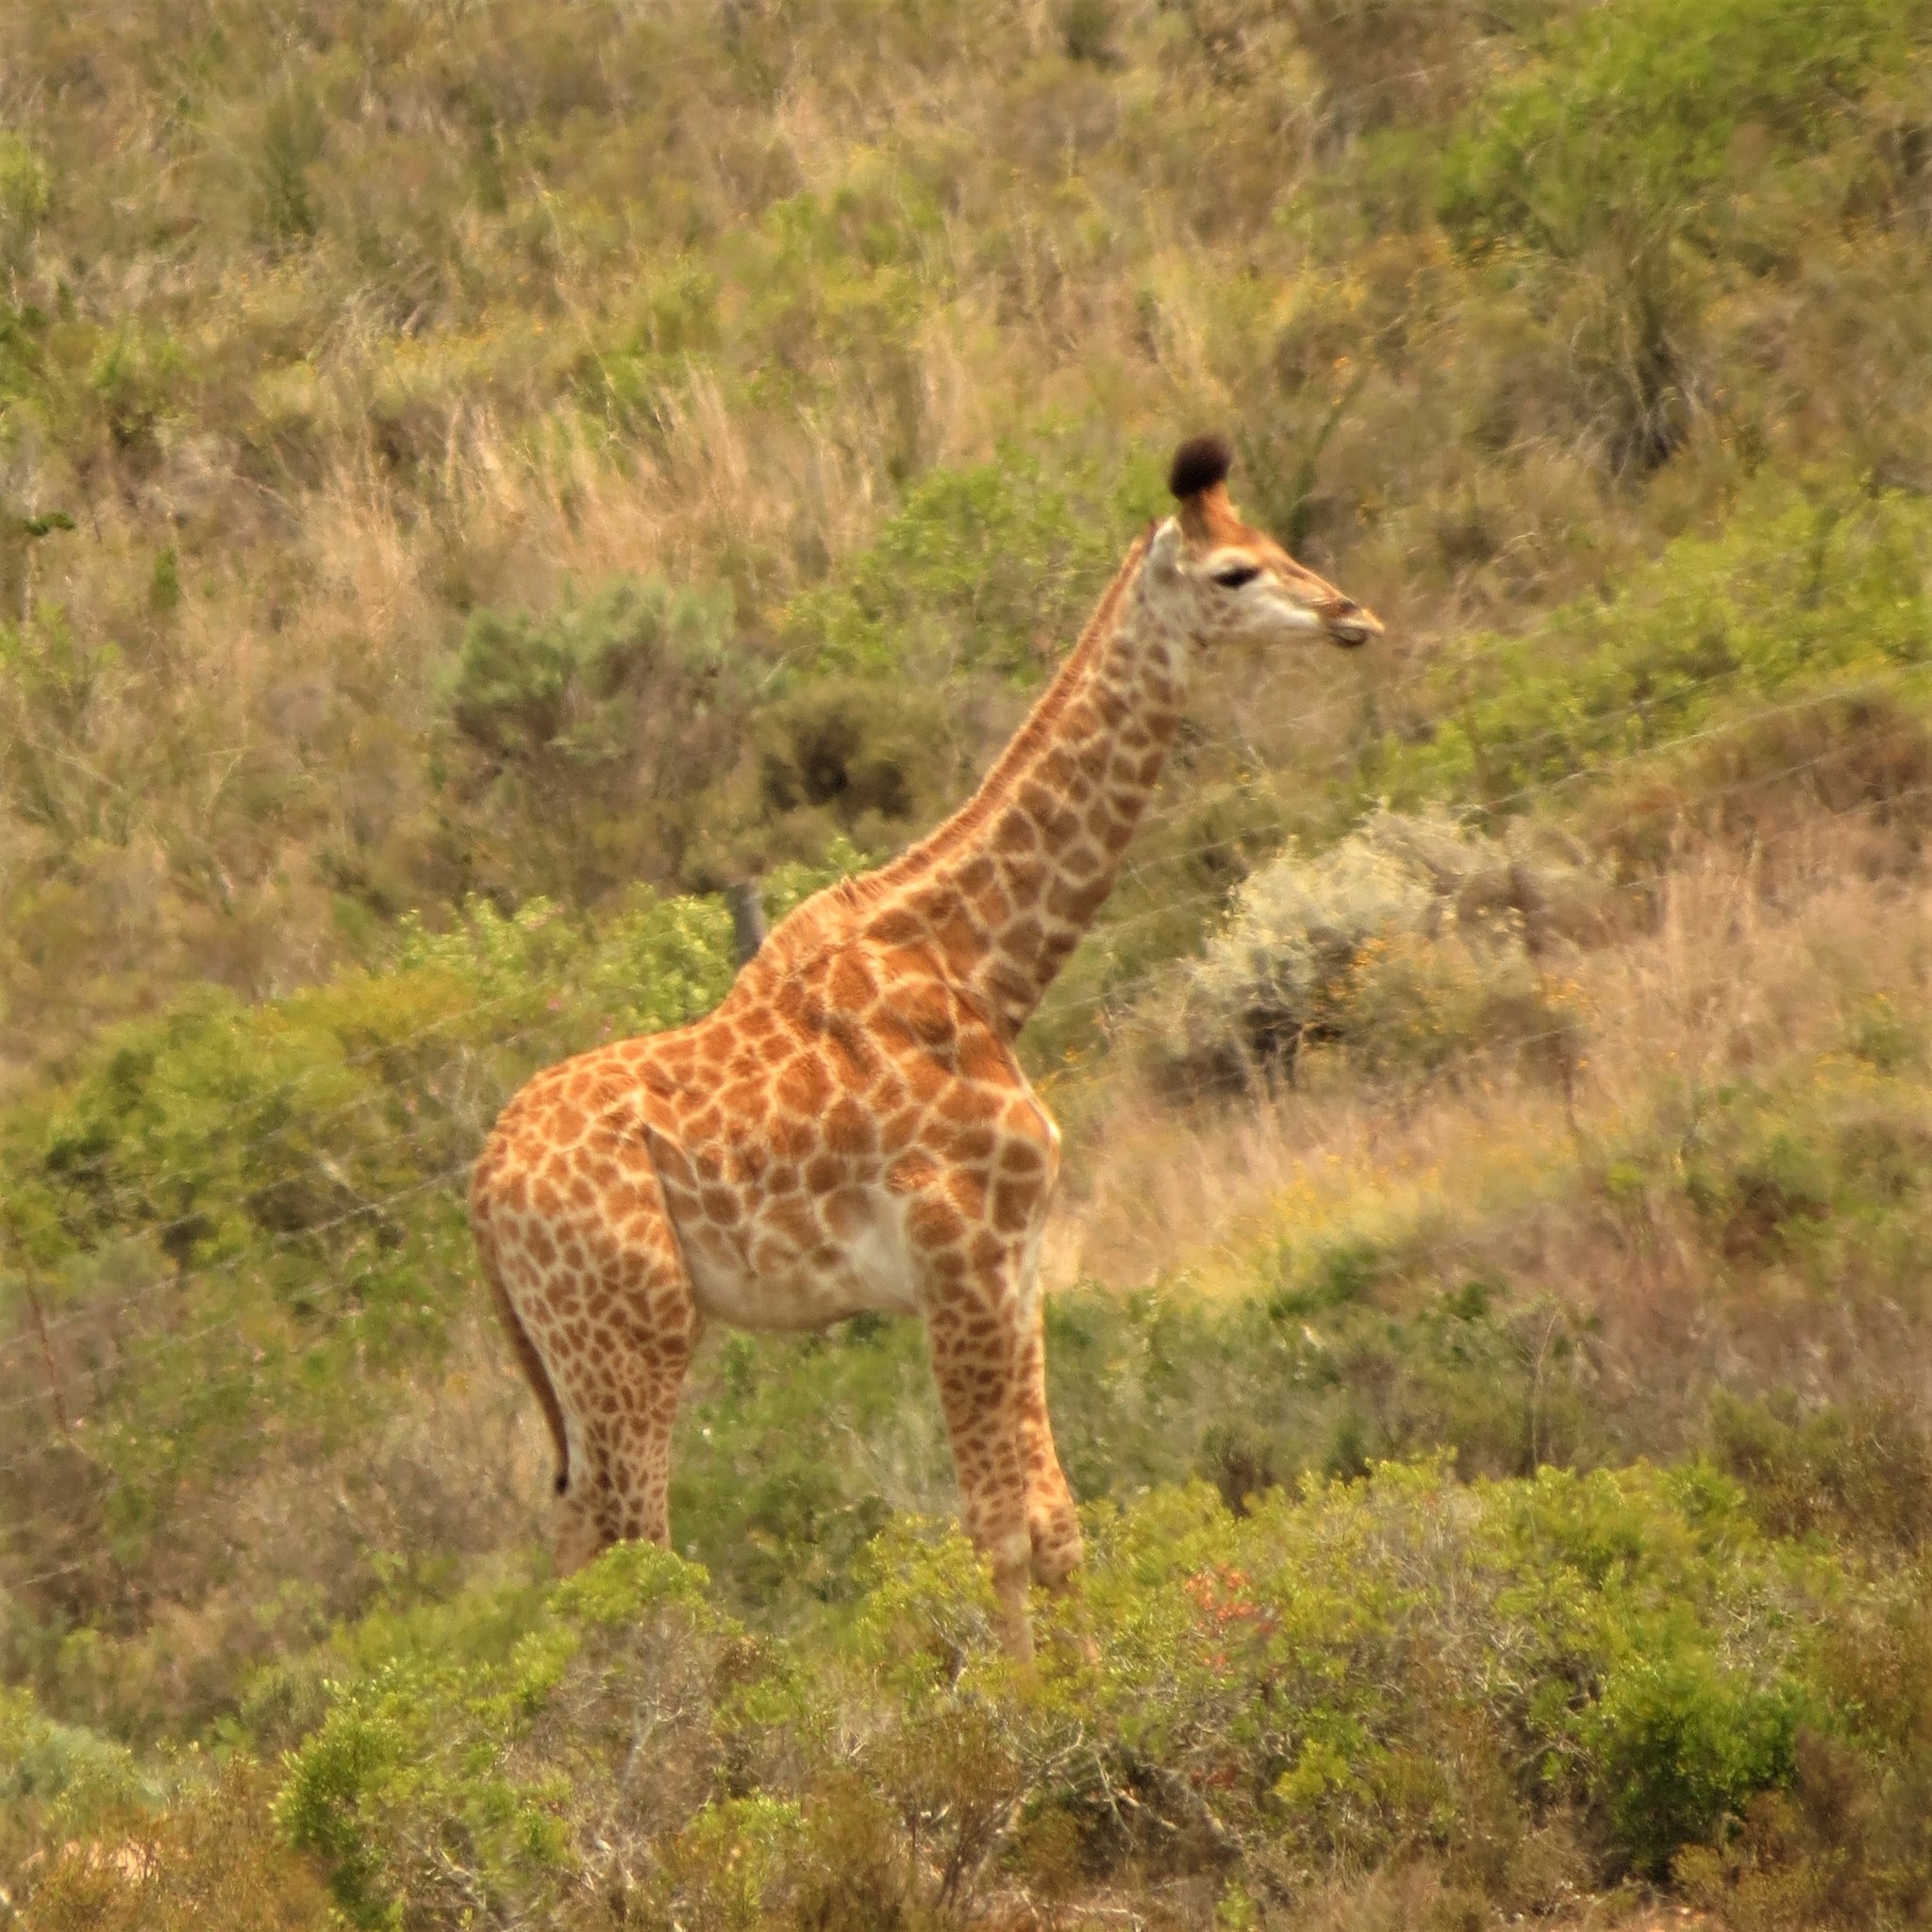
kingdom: Animalia
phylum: Chordata
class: Mammalia
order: Artiodactyla
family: Giraffidae
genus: Giraffa
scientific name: Giraffa giraffa
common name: Southern giraffe
